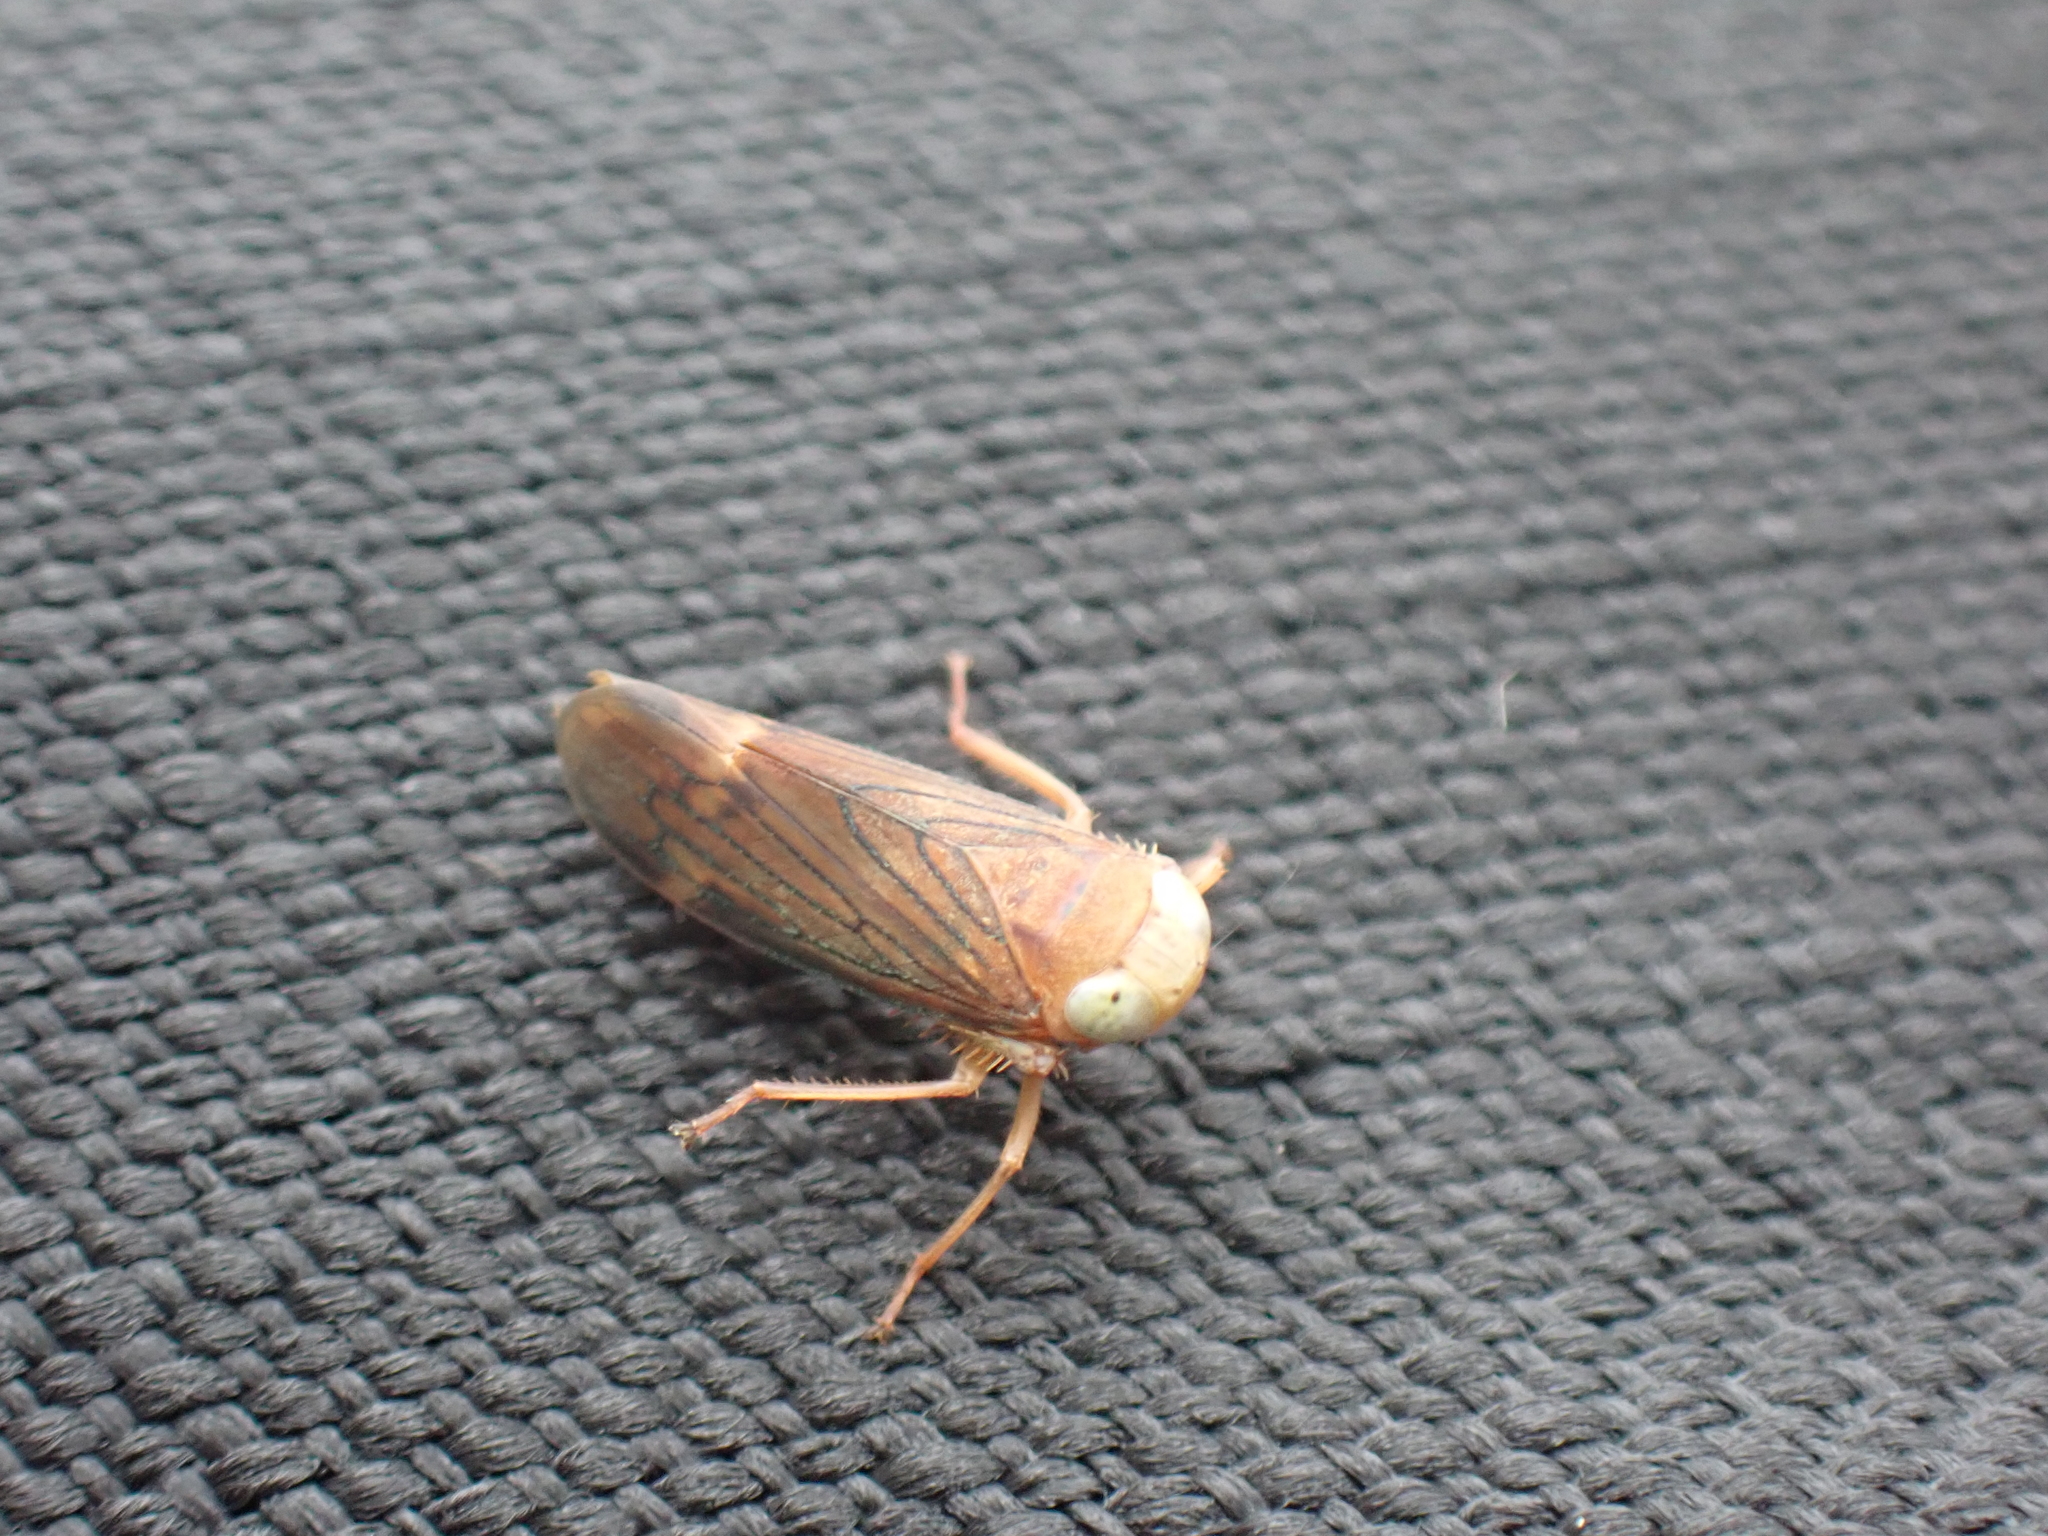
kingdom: Animalia
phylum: Arthropoda
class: Insecta
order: Hemiptera
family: Cicadellidae
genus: Jikradia
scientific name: Jikradia olitoria
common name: Coppery leafhopper
